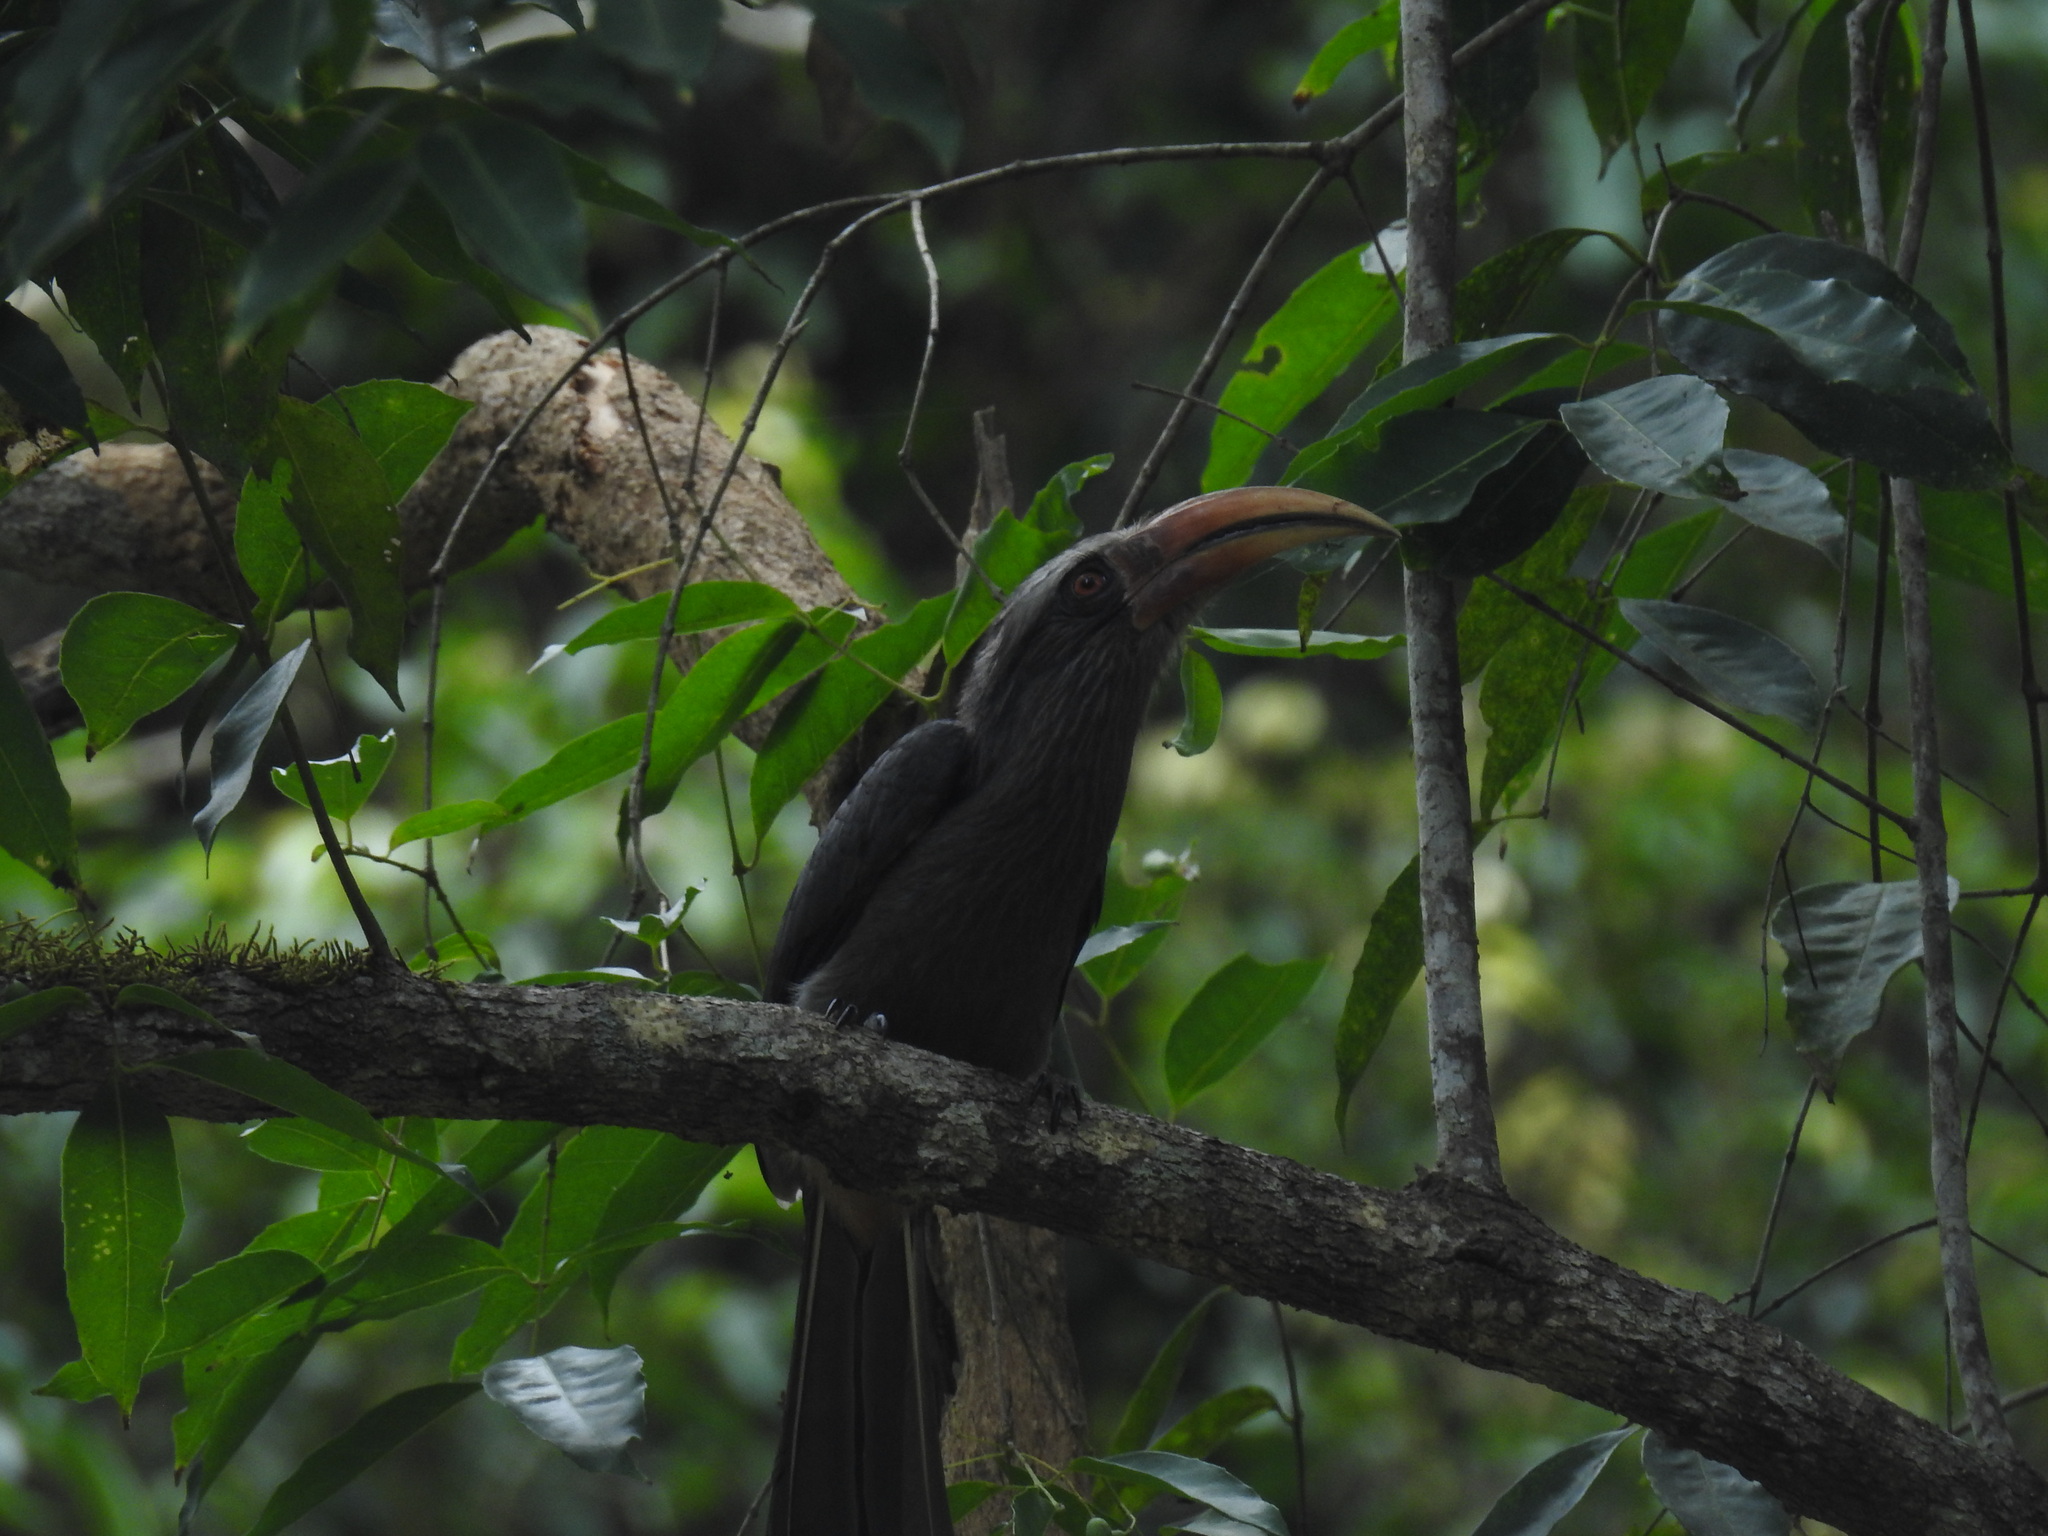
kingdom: Animalia
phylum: Chordata
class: Aves
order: Bucerotiformes
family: Bucerotidae
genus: Ocyceros
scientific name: Ocyceros griseus
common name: Malabar grey hornbill
